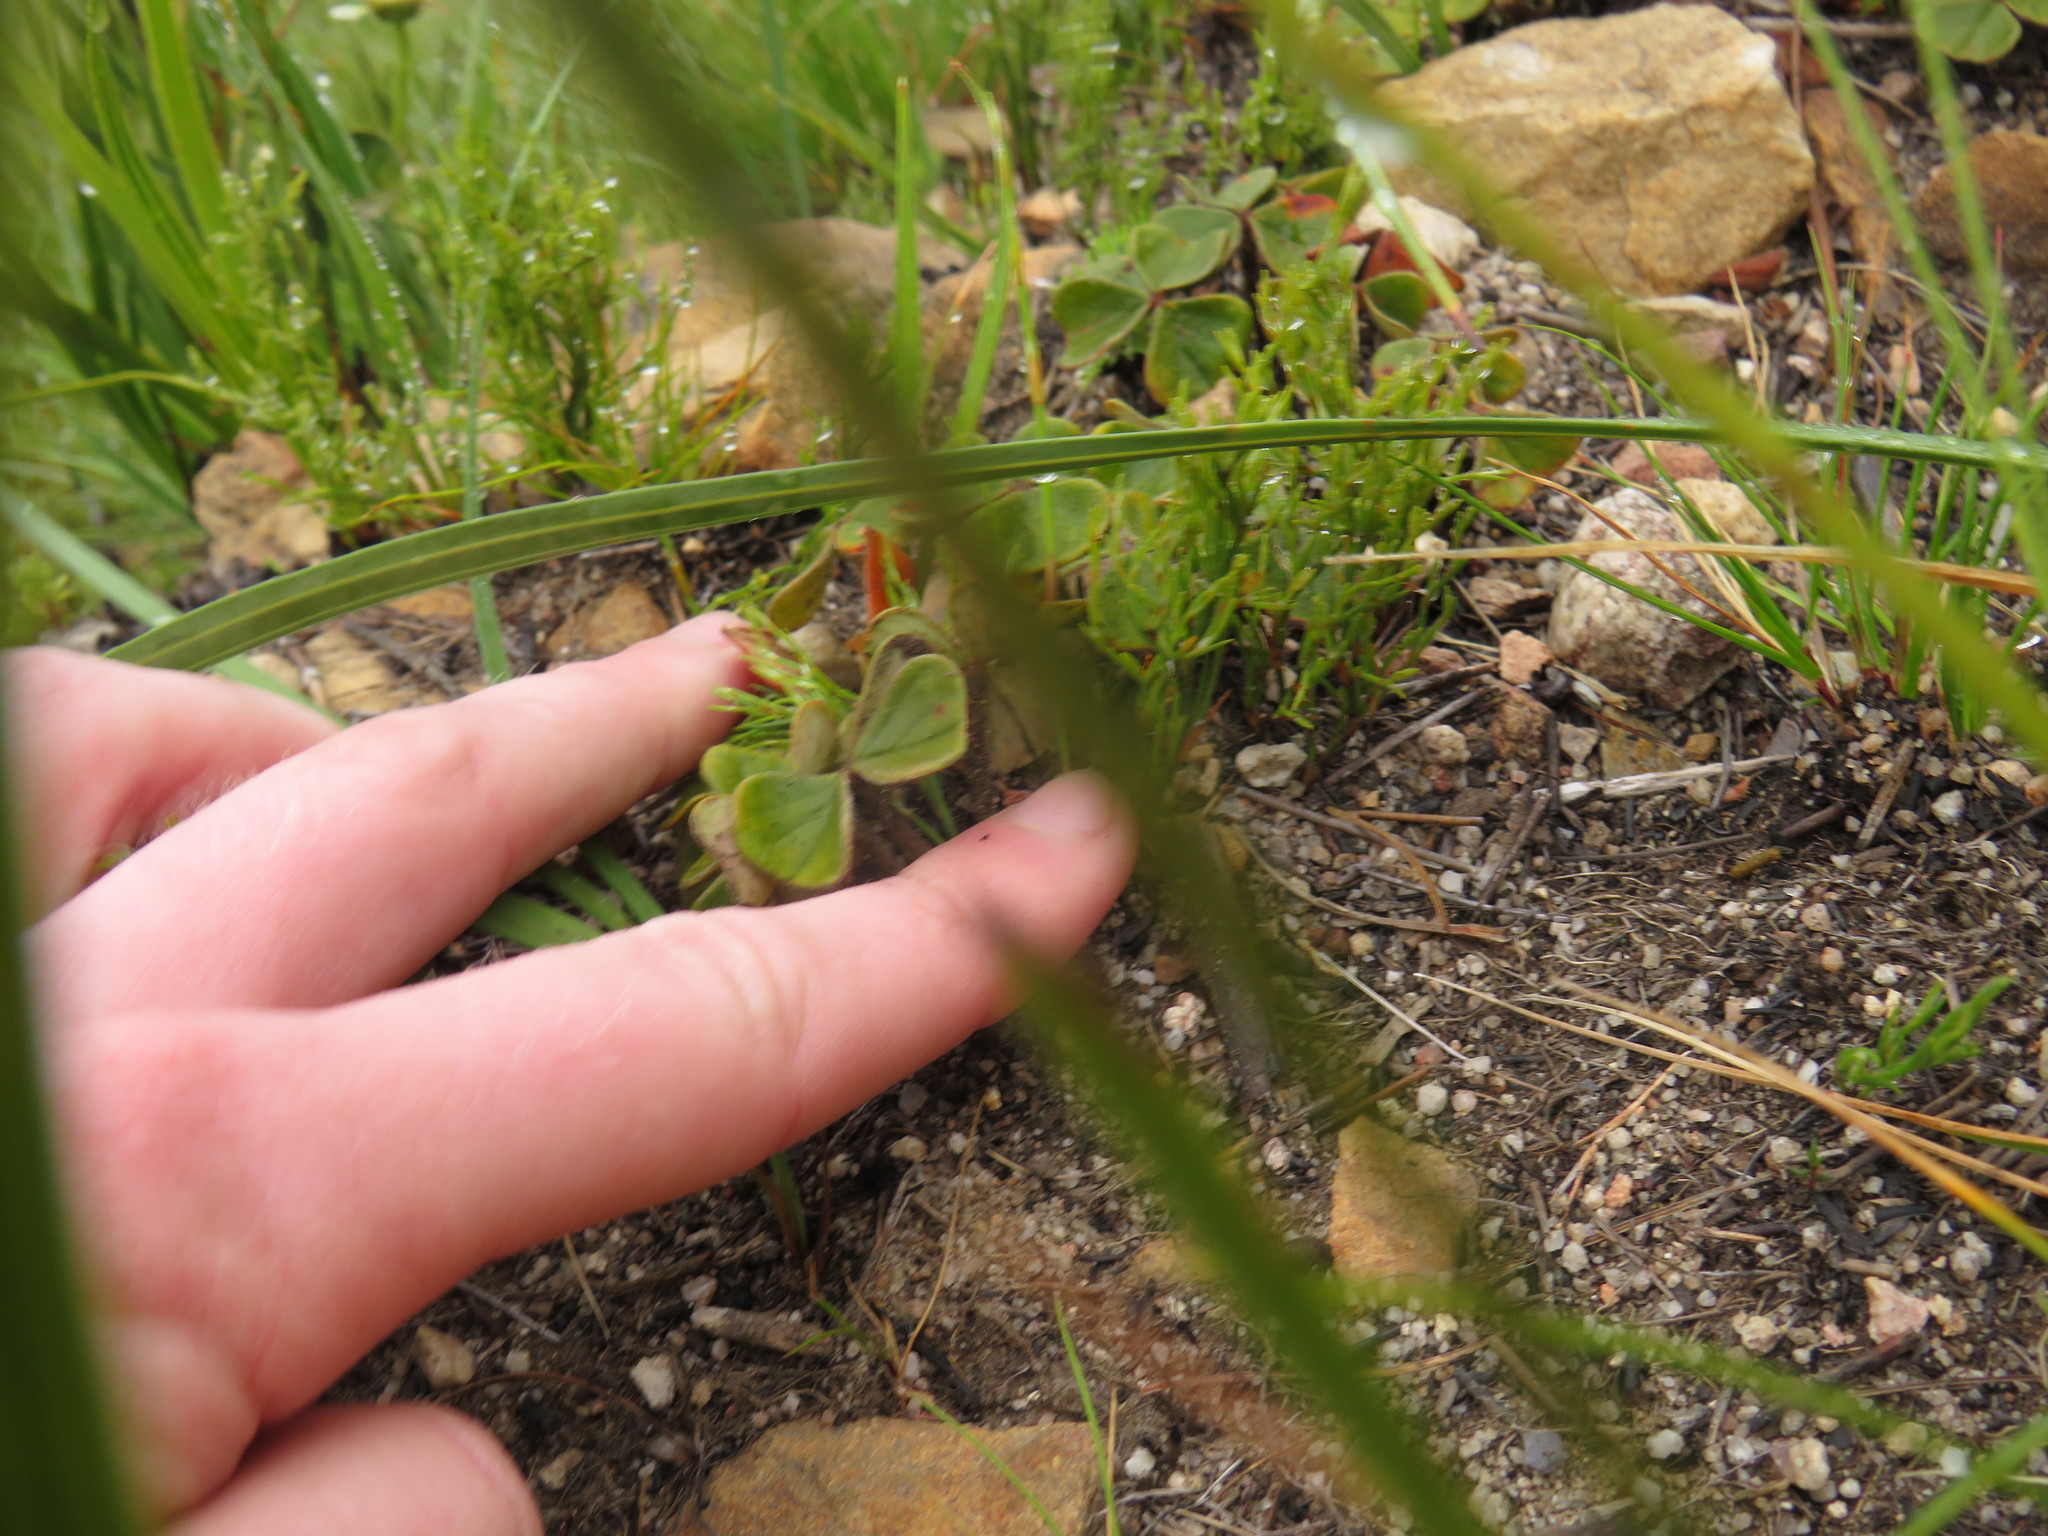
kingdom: Plantae
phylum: Tracheophyta
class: Magnoliopsida
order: Oxalidales
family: Oxalidaceae
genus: Oxalis
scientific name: Oxalis truncatula
